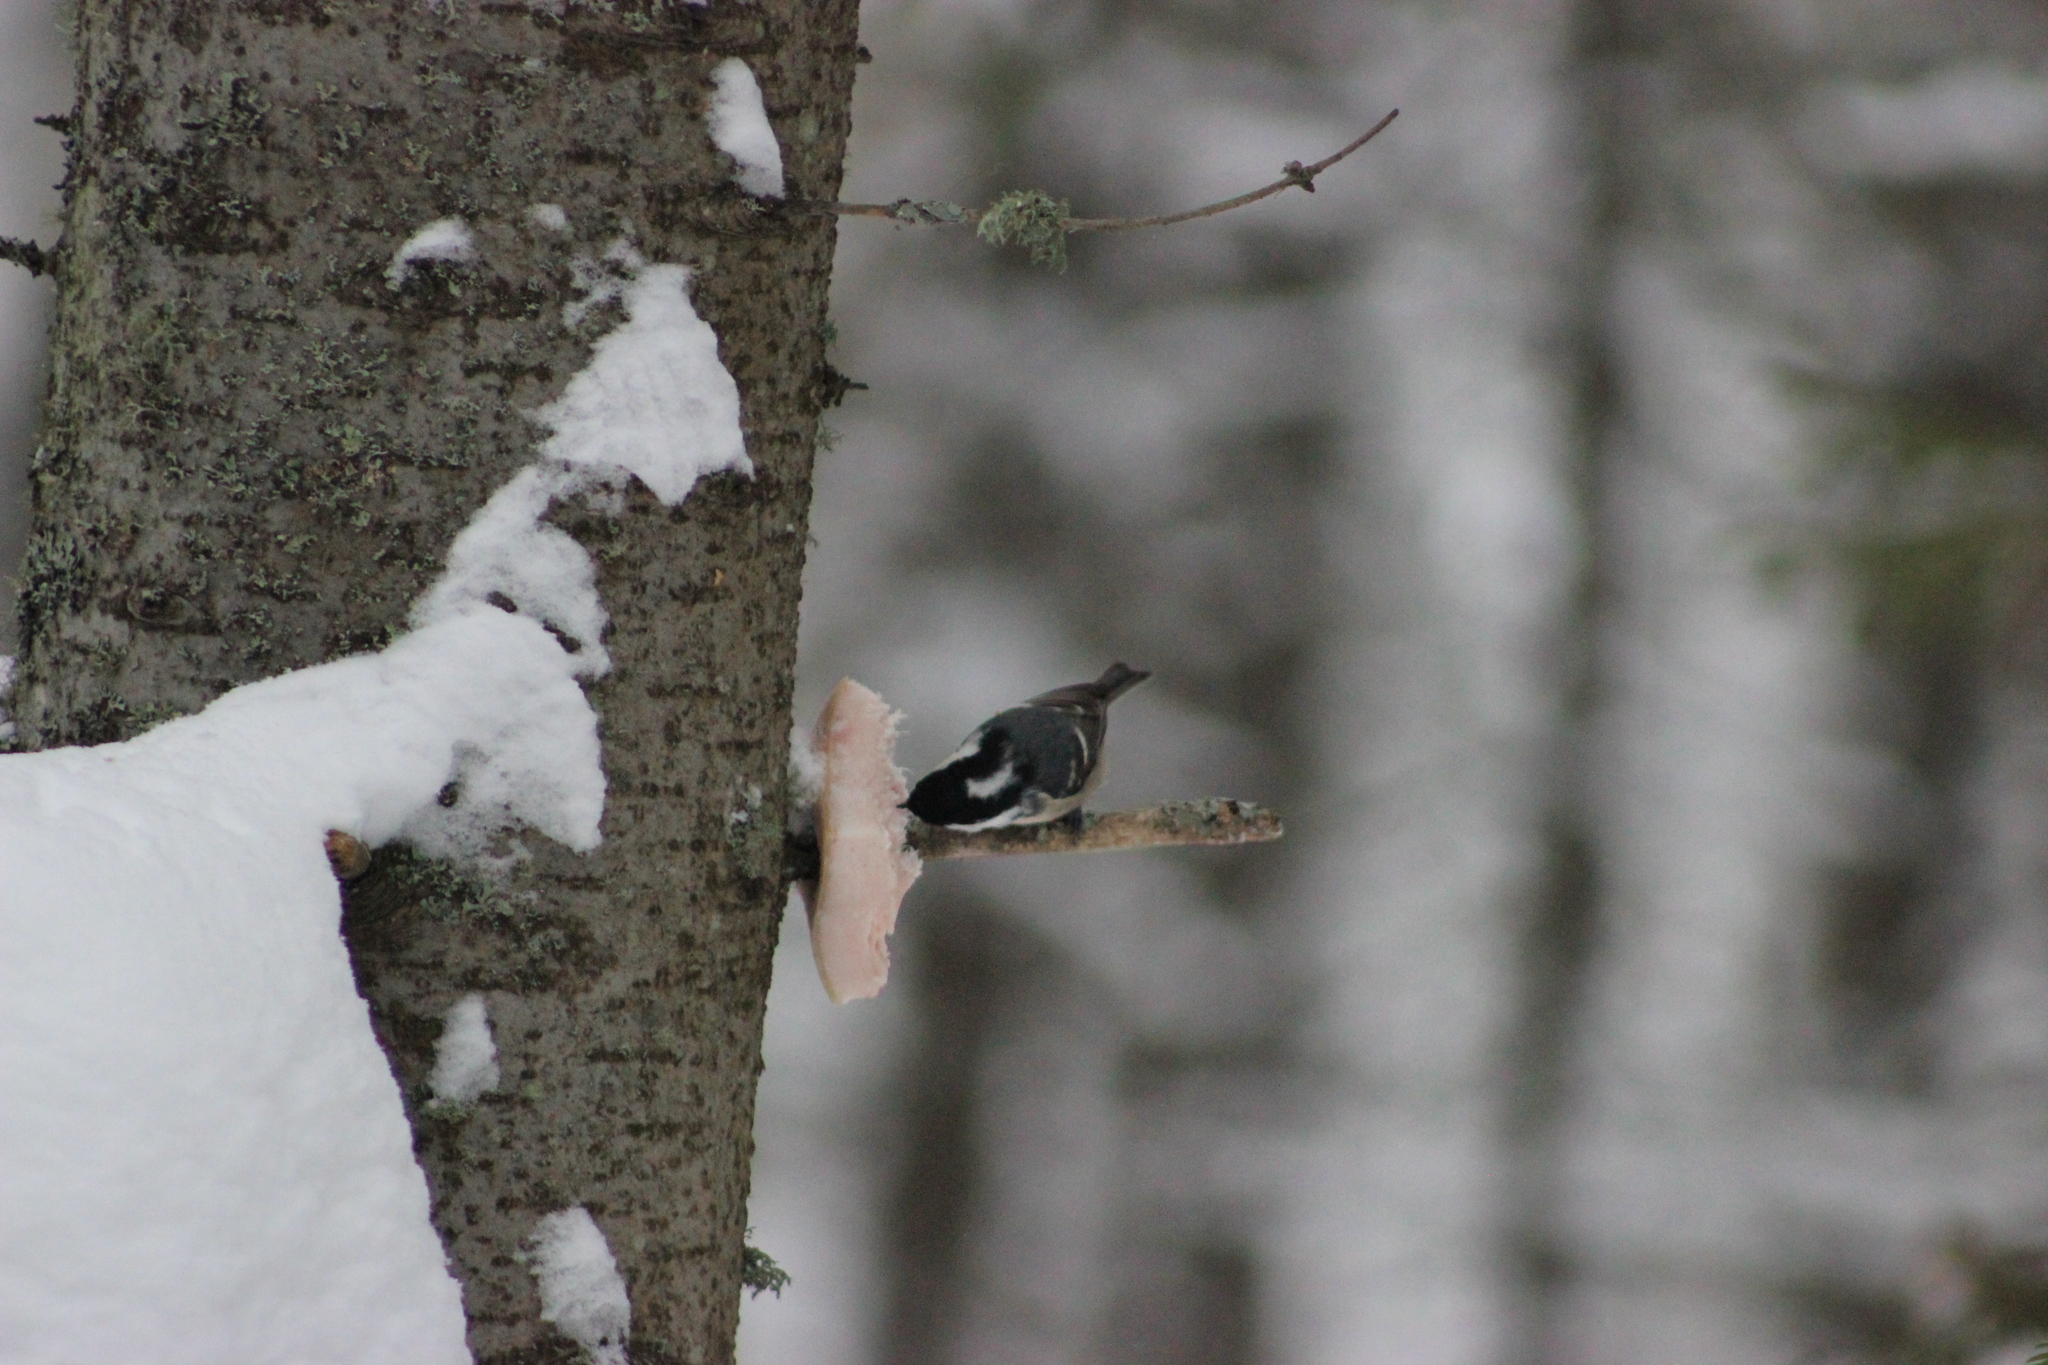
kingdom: Animalia
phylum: Chordata
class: Aves
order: Passeriformes
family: Paridae
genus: Periparus
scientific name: Periparus ater
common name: Coal tit
